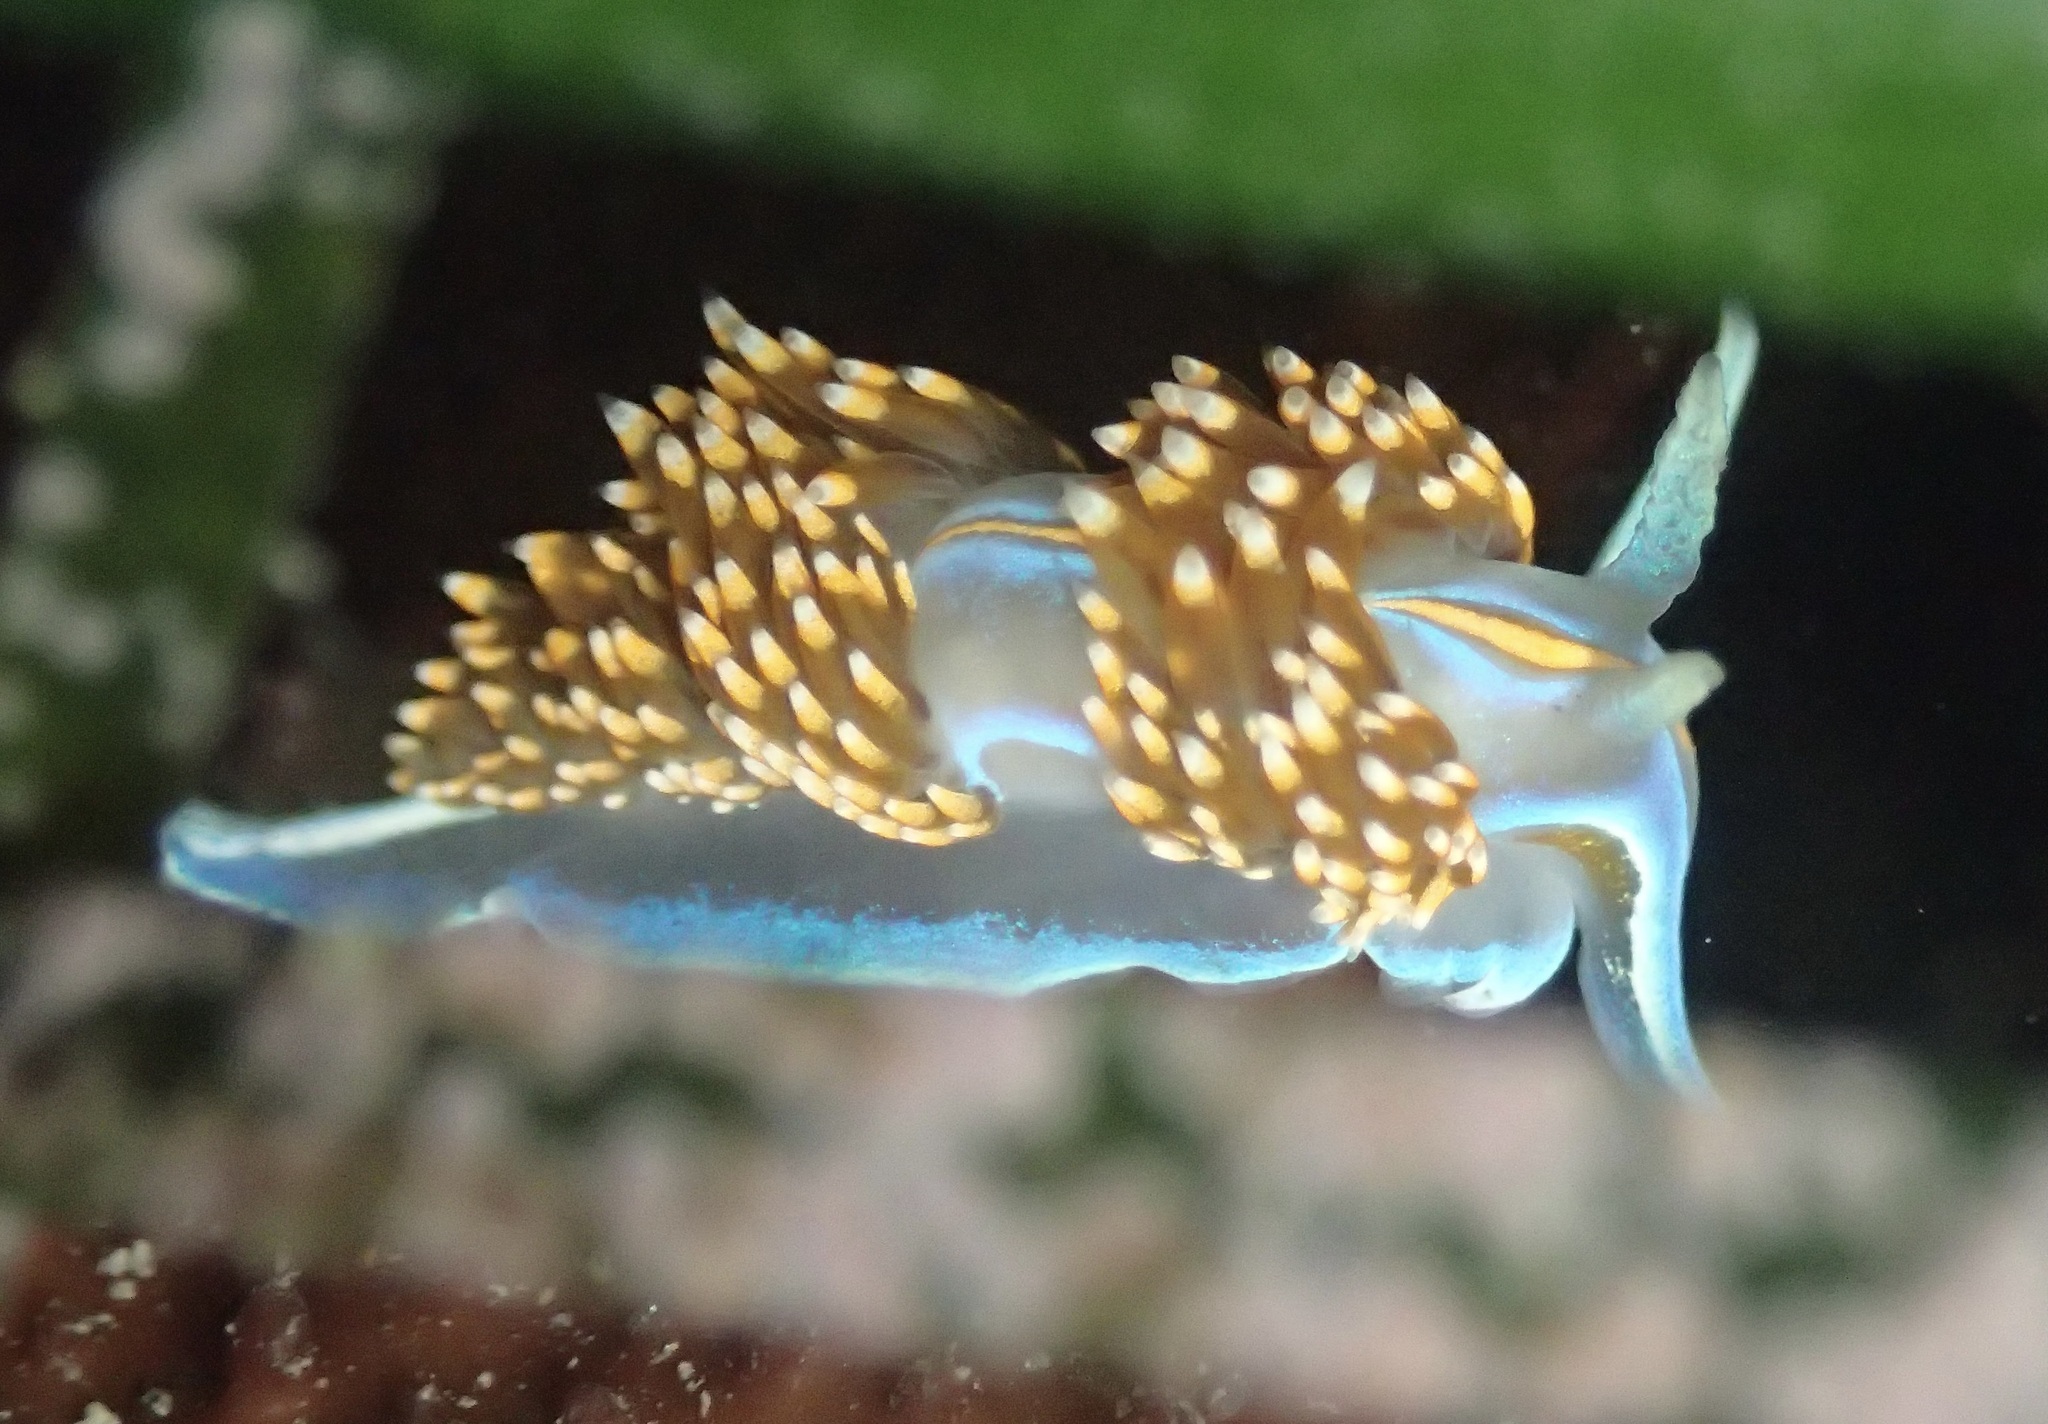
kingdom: Animalia
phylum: Mollusca
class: Gastropoda
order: Nudibranchia
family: Myrrhinidae
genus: Hermissenda
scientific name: Hermissenda opalescens
